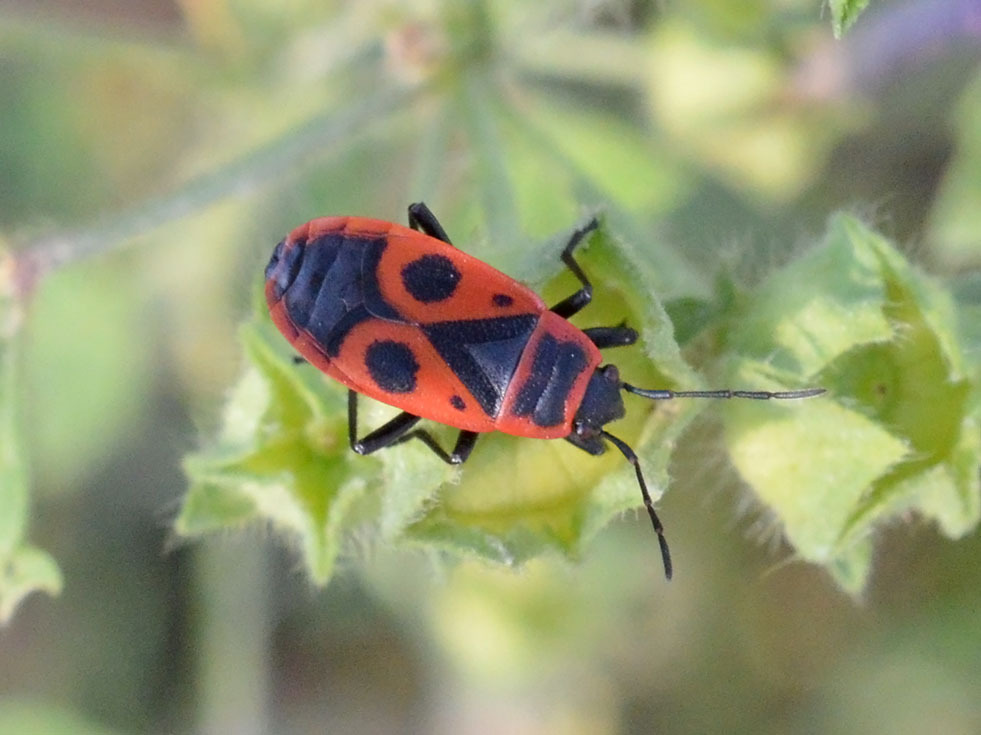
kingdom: Animalia
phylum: Arthropoda
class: Insecta
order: Hemiptera
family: Pyrrhocoridae
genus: Pyrrhocoris
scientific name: Pyrrhocoris apterus
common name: Firebug
